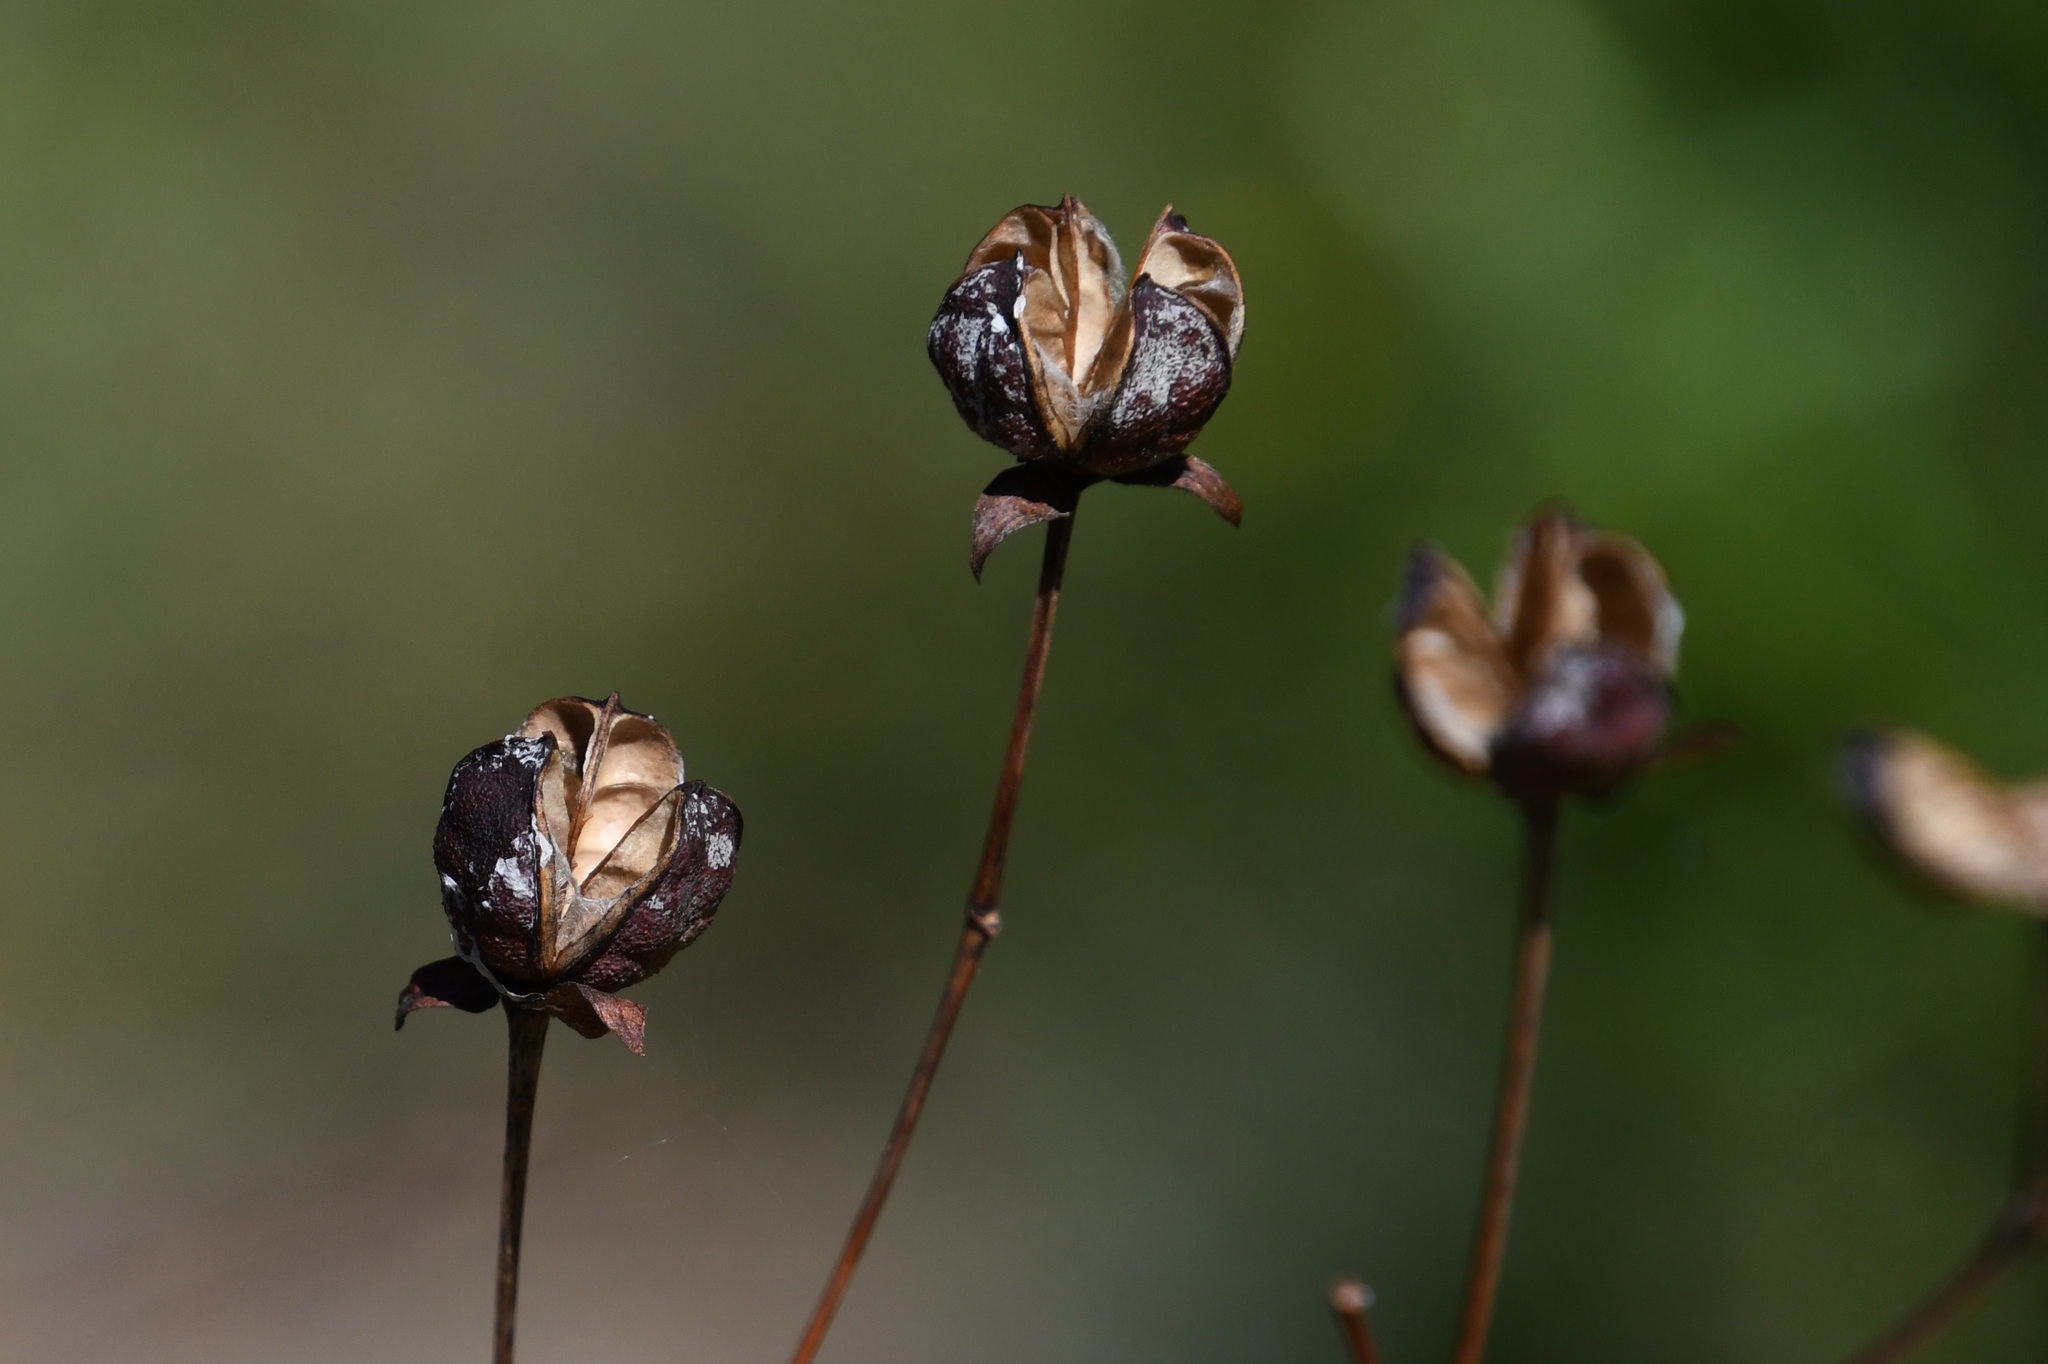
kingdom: Plantae
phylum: Tracheophyta
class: Magnoliopsida
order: Malvales
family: Malvaceae
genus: Gossypium
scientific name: Gossypium thurberi
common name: Desert cotton
